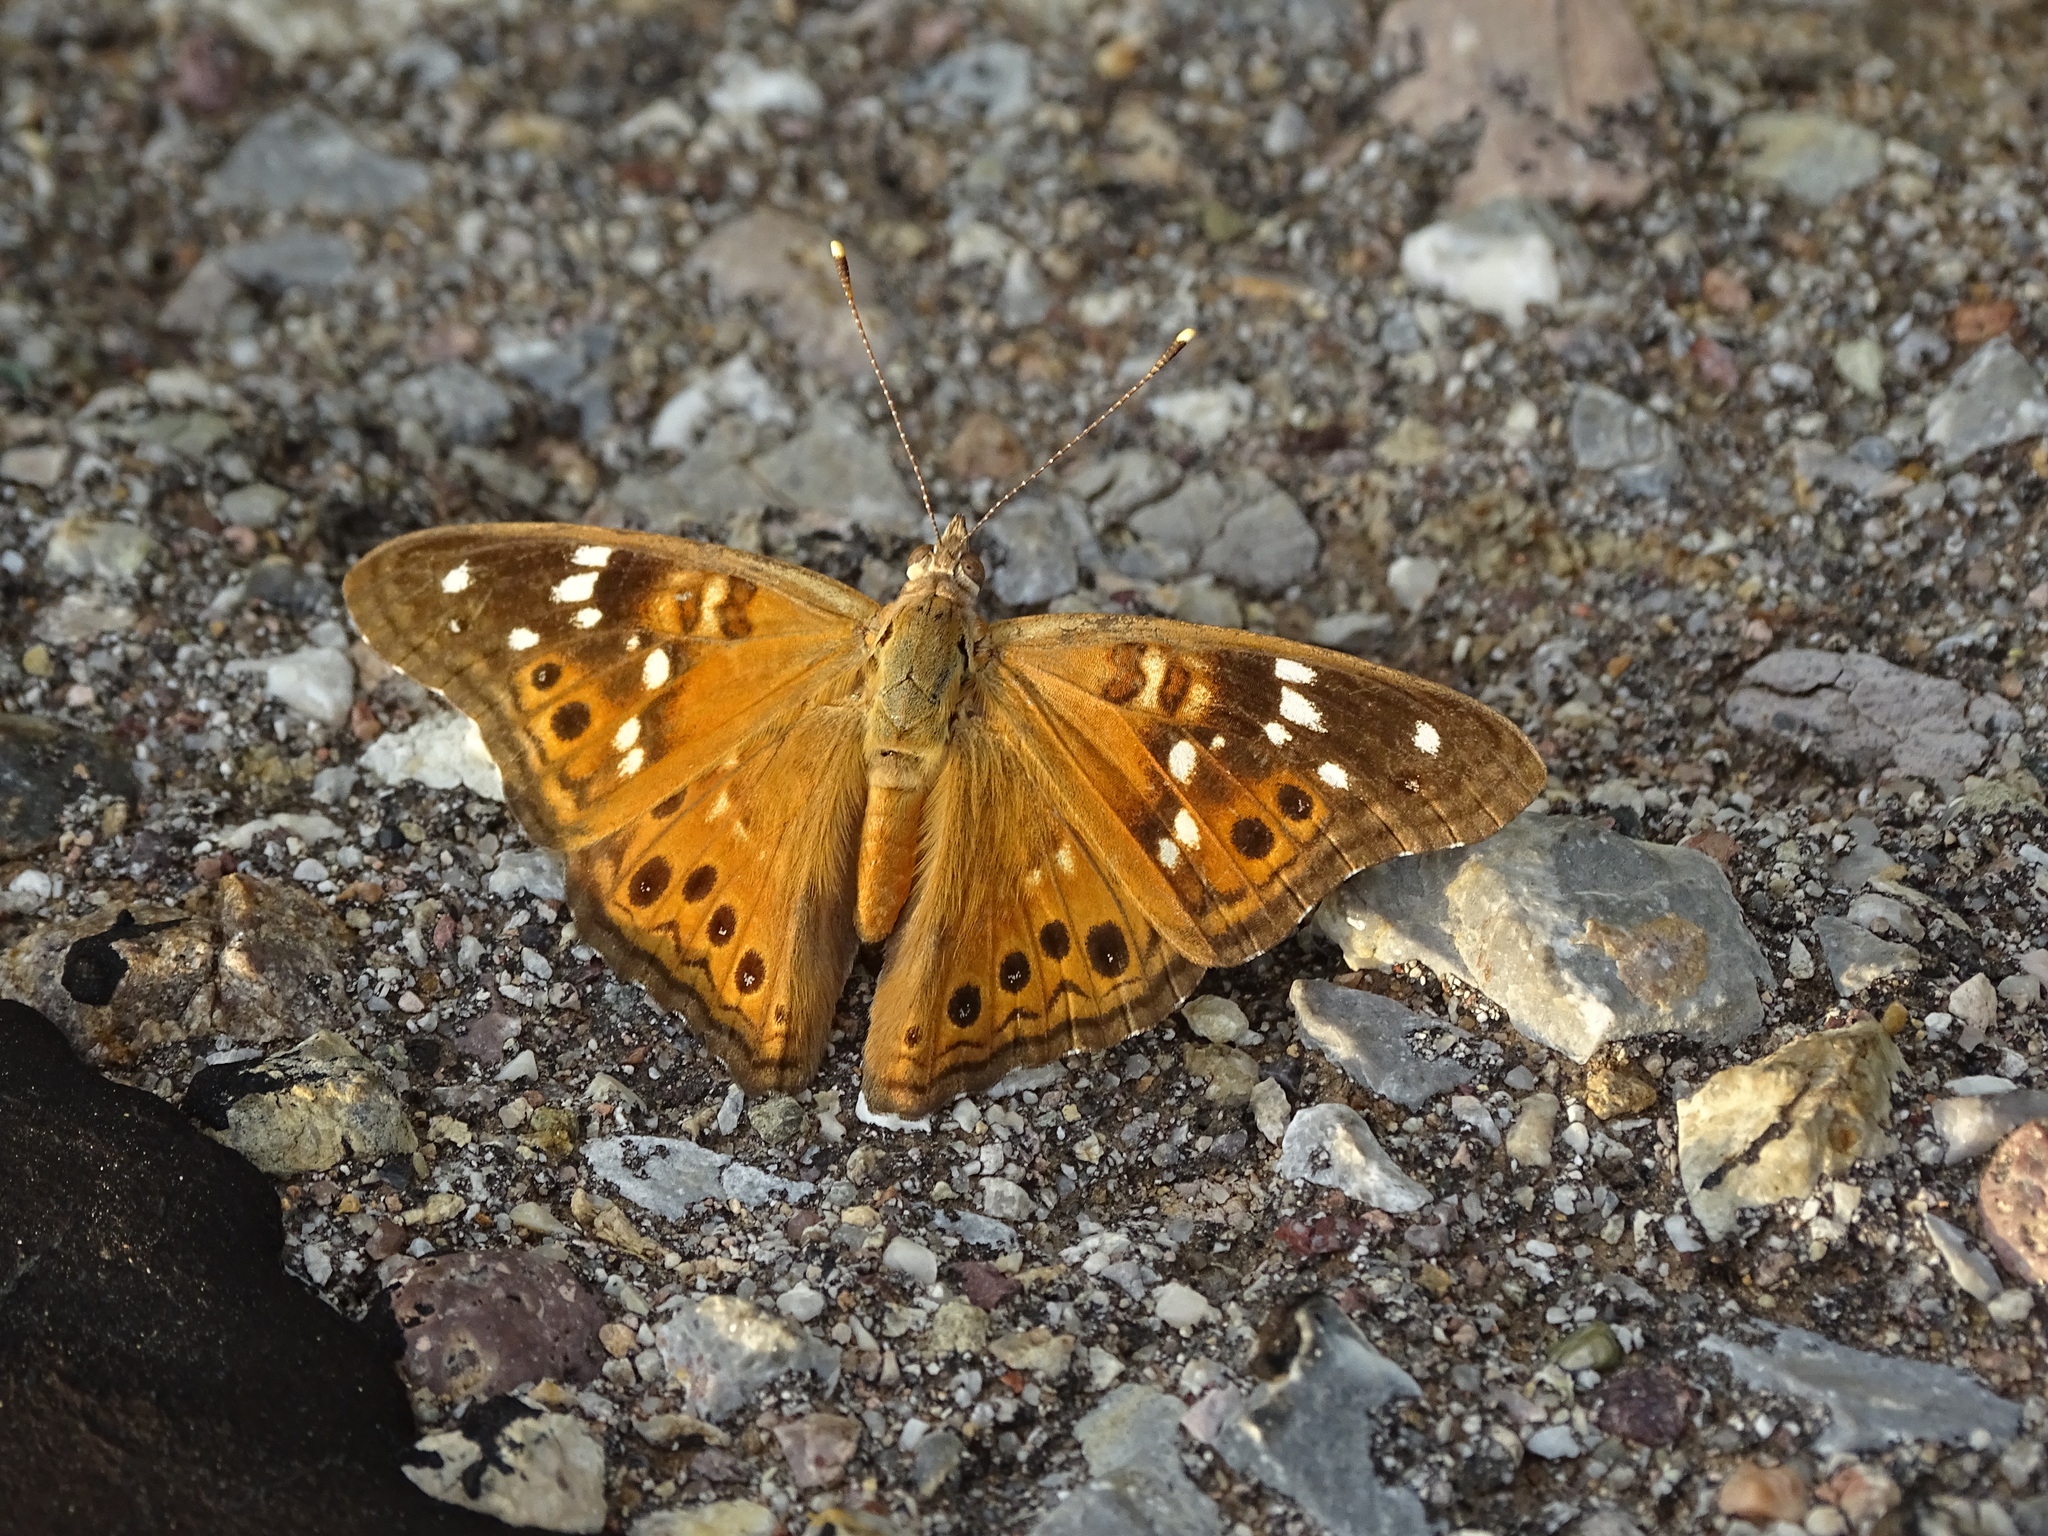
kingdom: Animalia
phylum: Arthropoda
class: Insecta
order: Lepidoptera
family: Nymphalidae
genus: Asterocampa
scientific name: Asterocampa leilia
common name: Empress leilia
